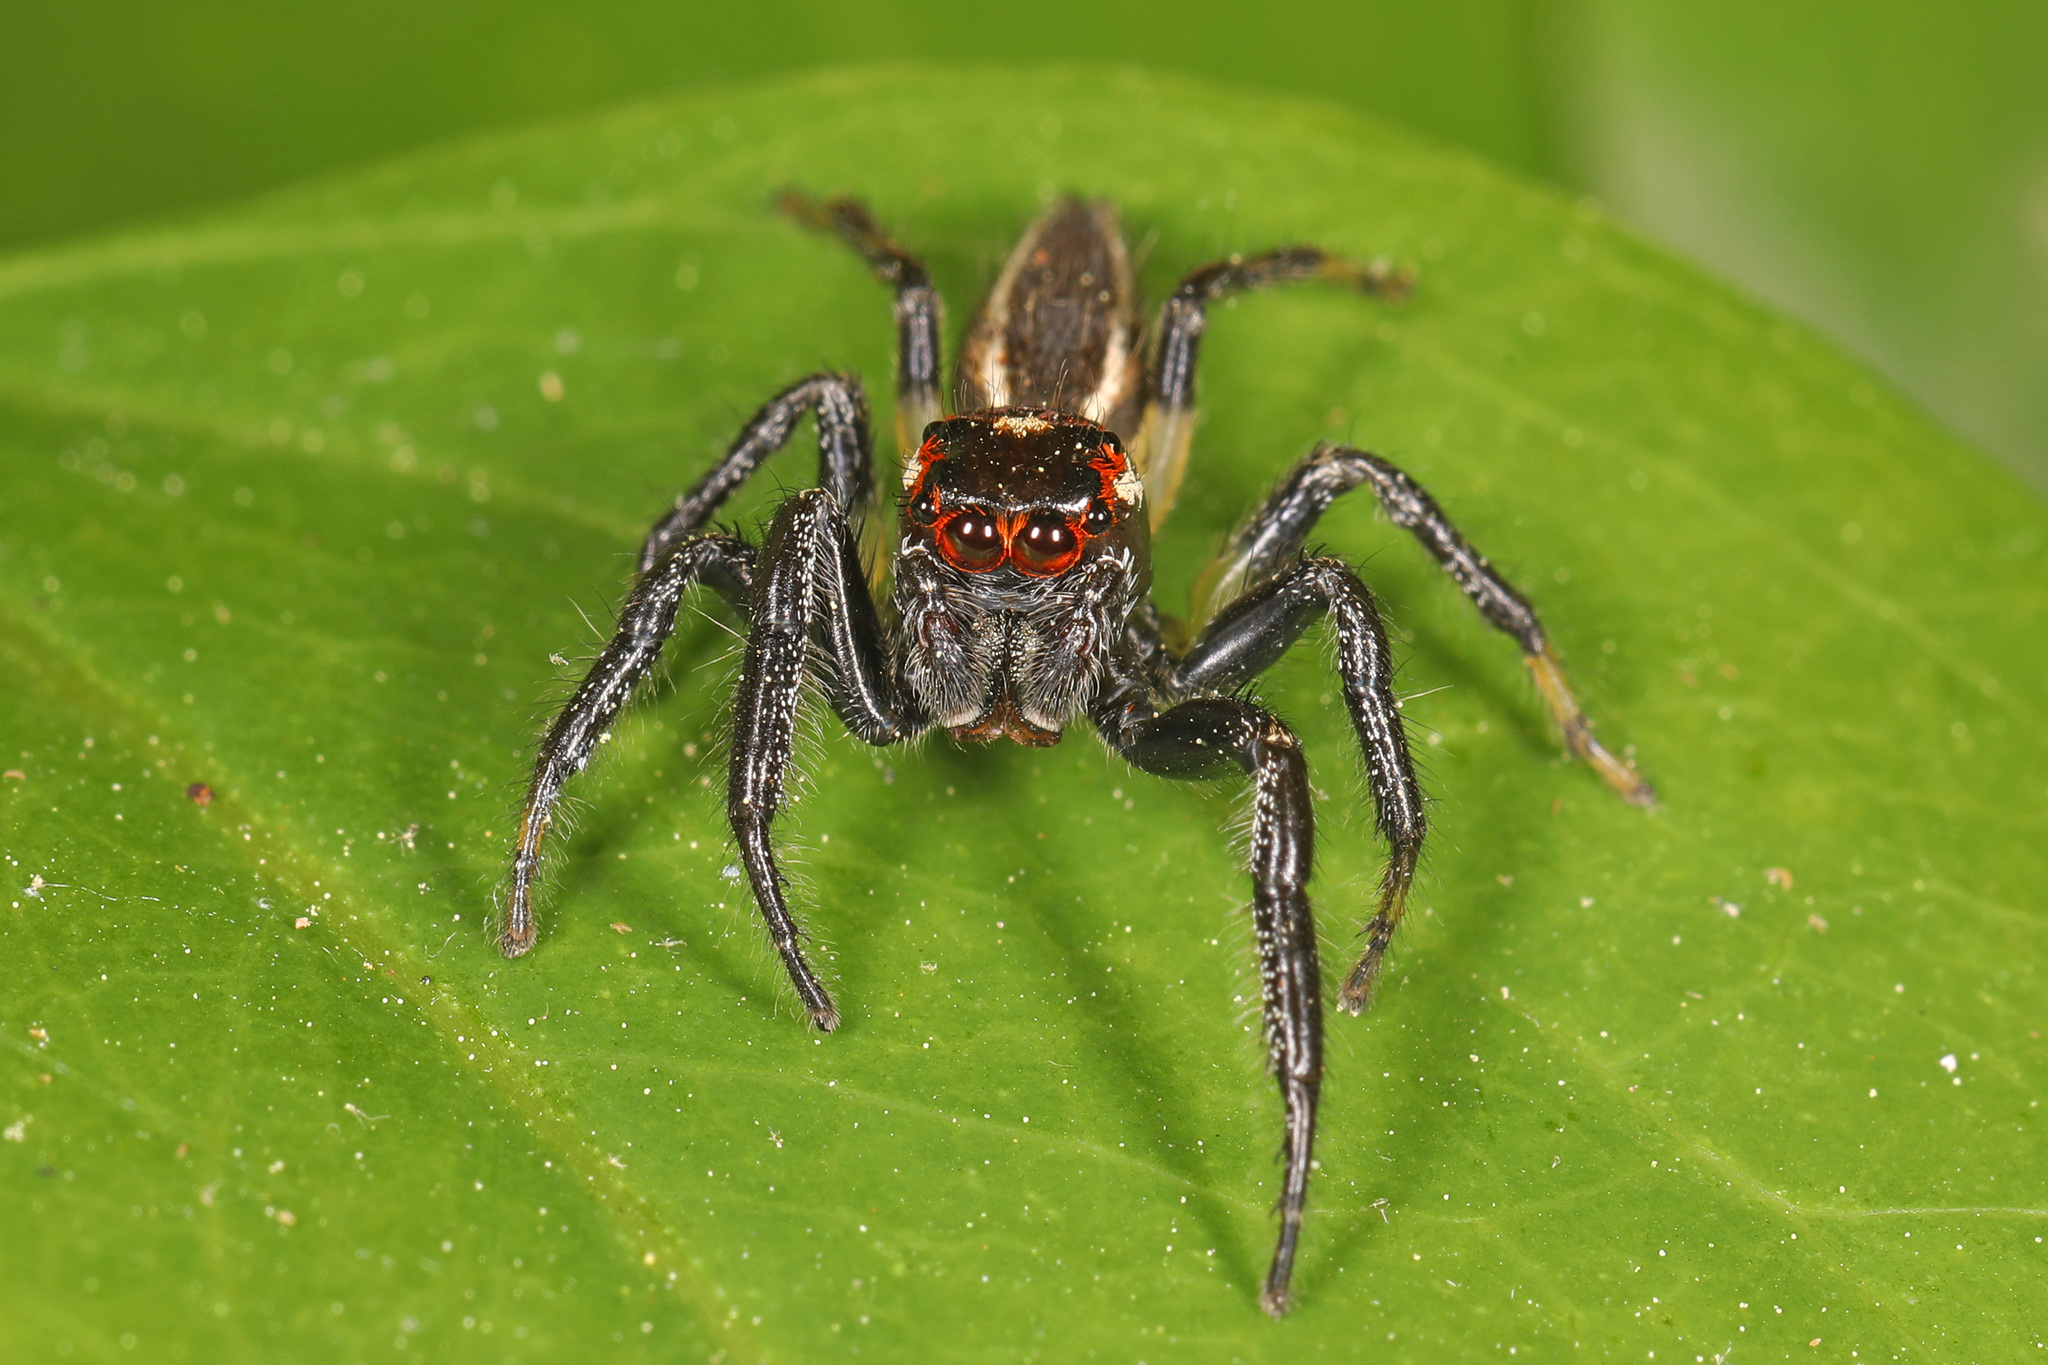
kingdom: Animalia
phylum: Arthropoda
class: Arachnida
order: Araneae
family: Salticidae
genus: Colonus
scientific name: Colonus sylvanus
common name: Jumping spiders
